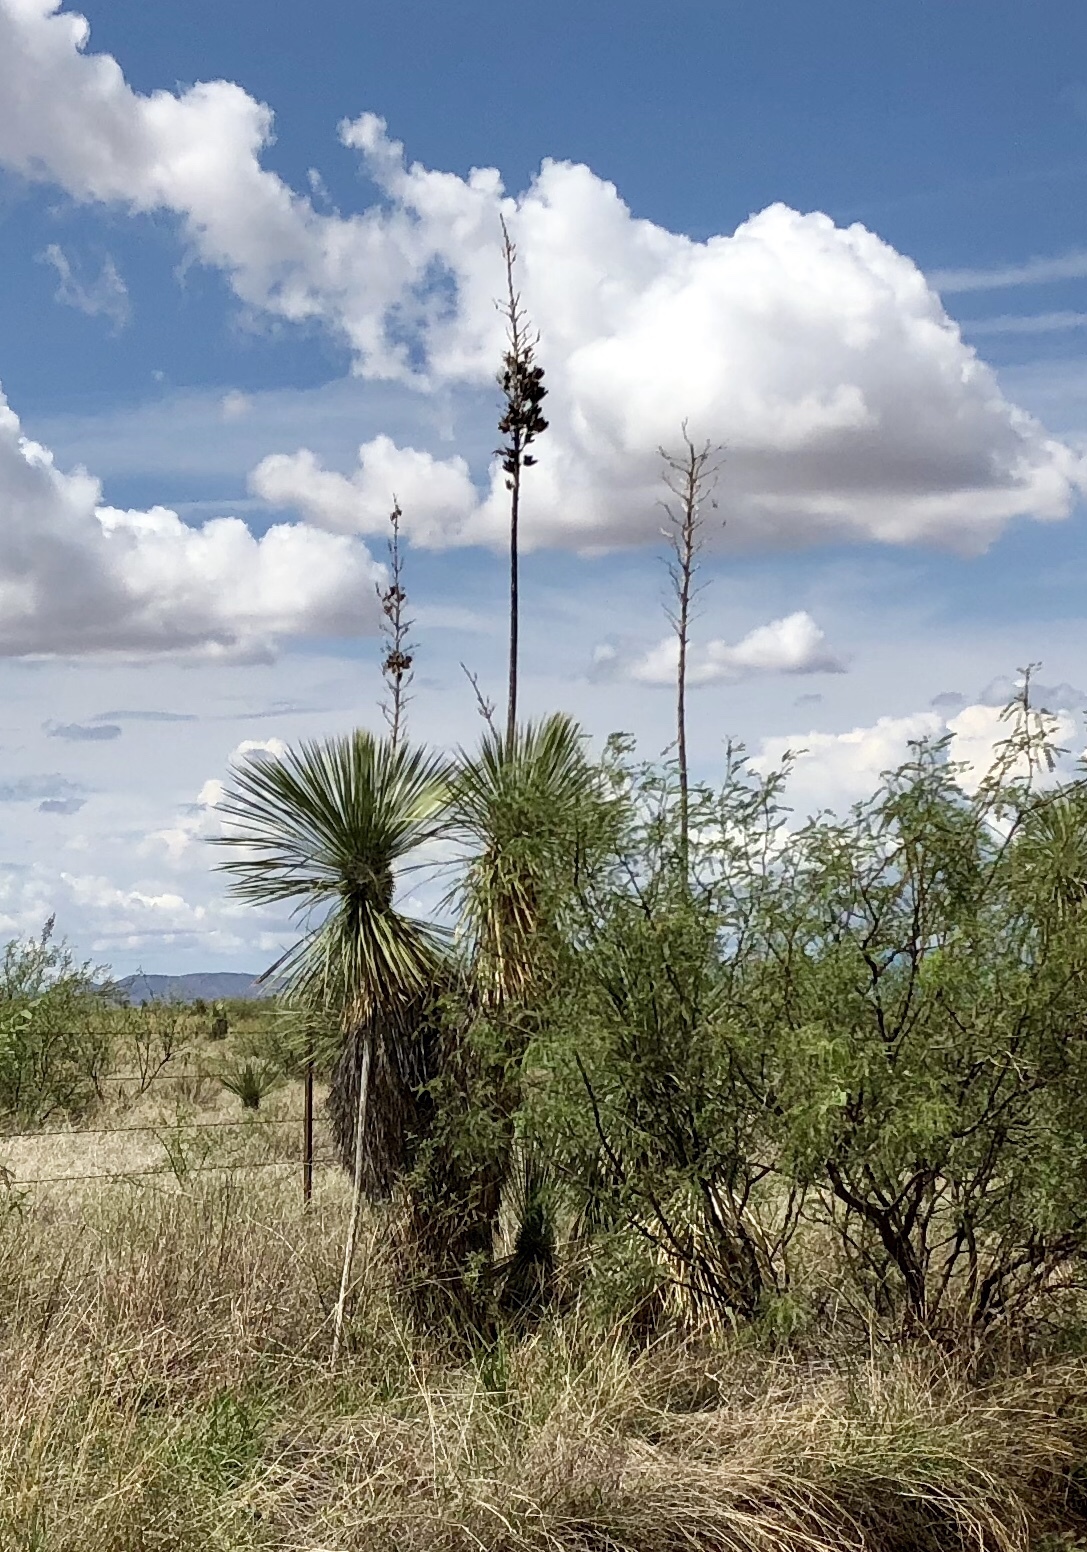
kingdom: Plantae
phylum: Tracheophyta
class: Liliopsida
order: Asparagales
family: Asparagaceae
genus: Yucca
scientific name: Yucca elata
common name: Palmella
